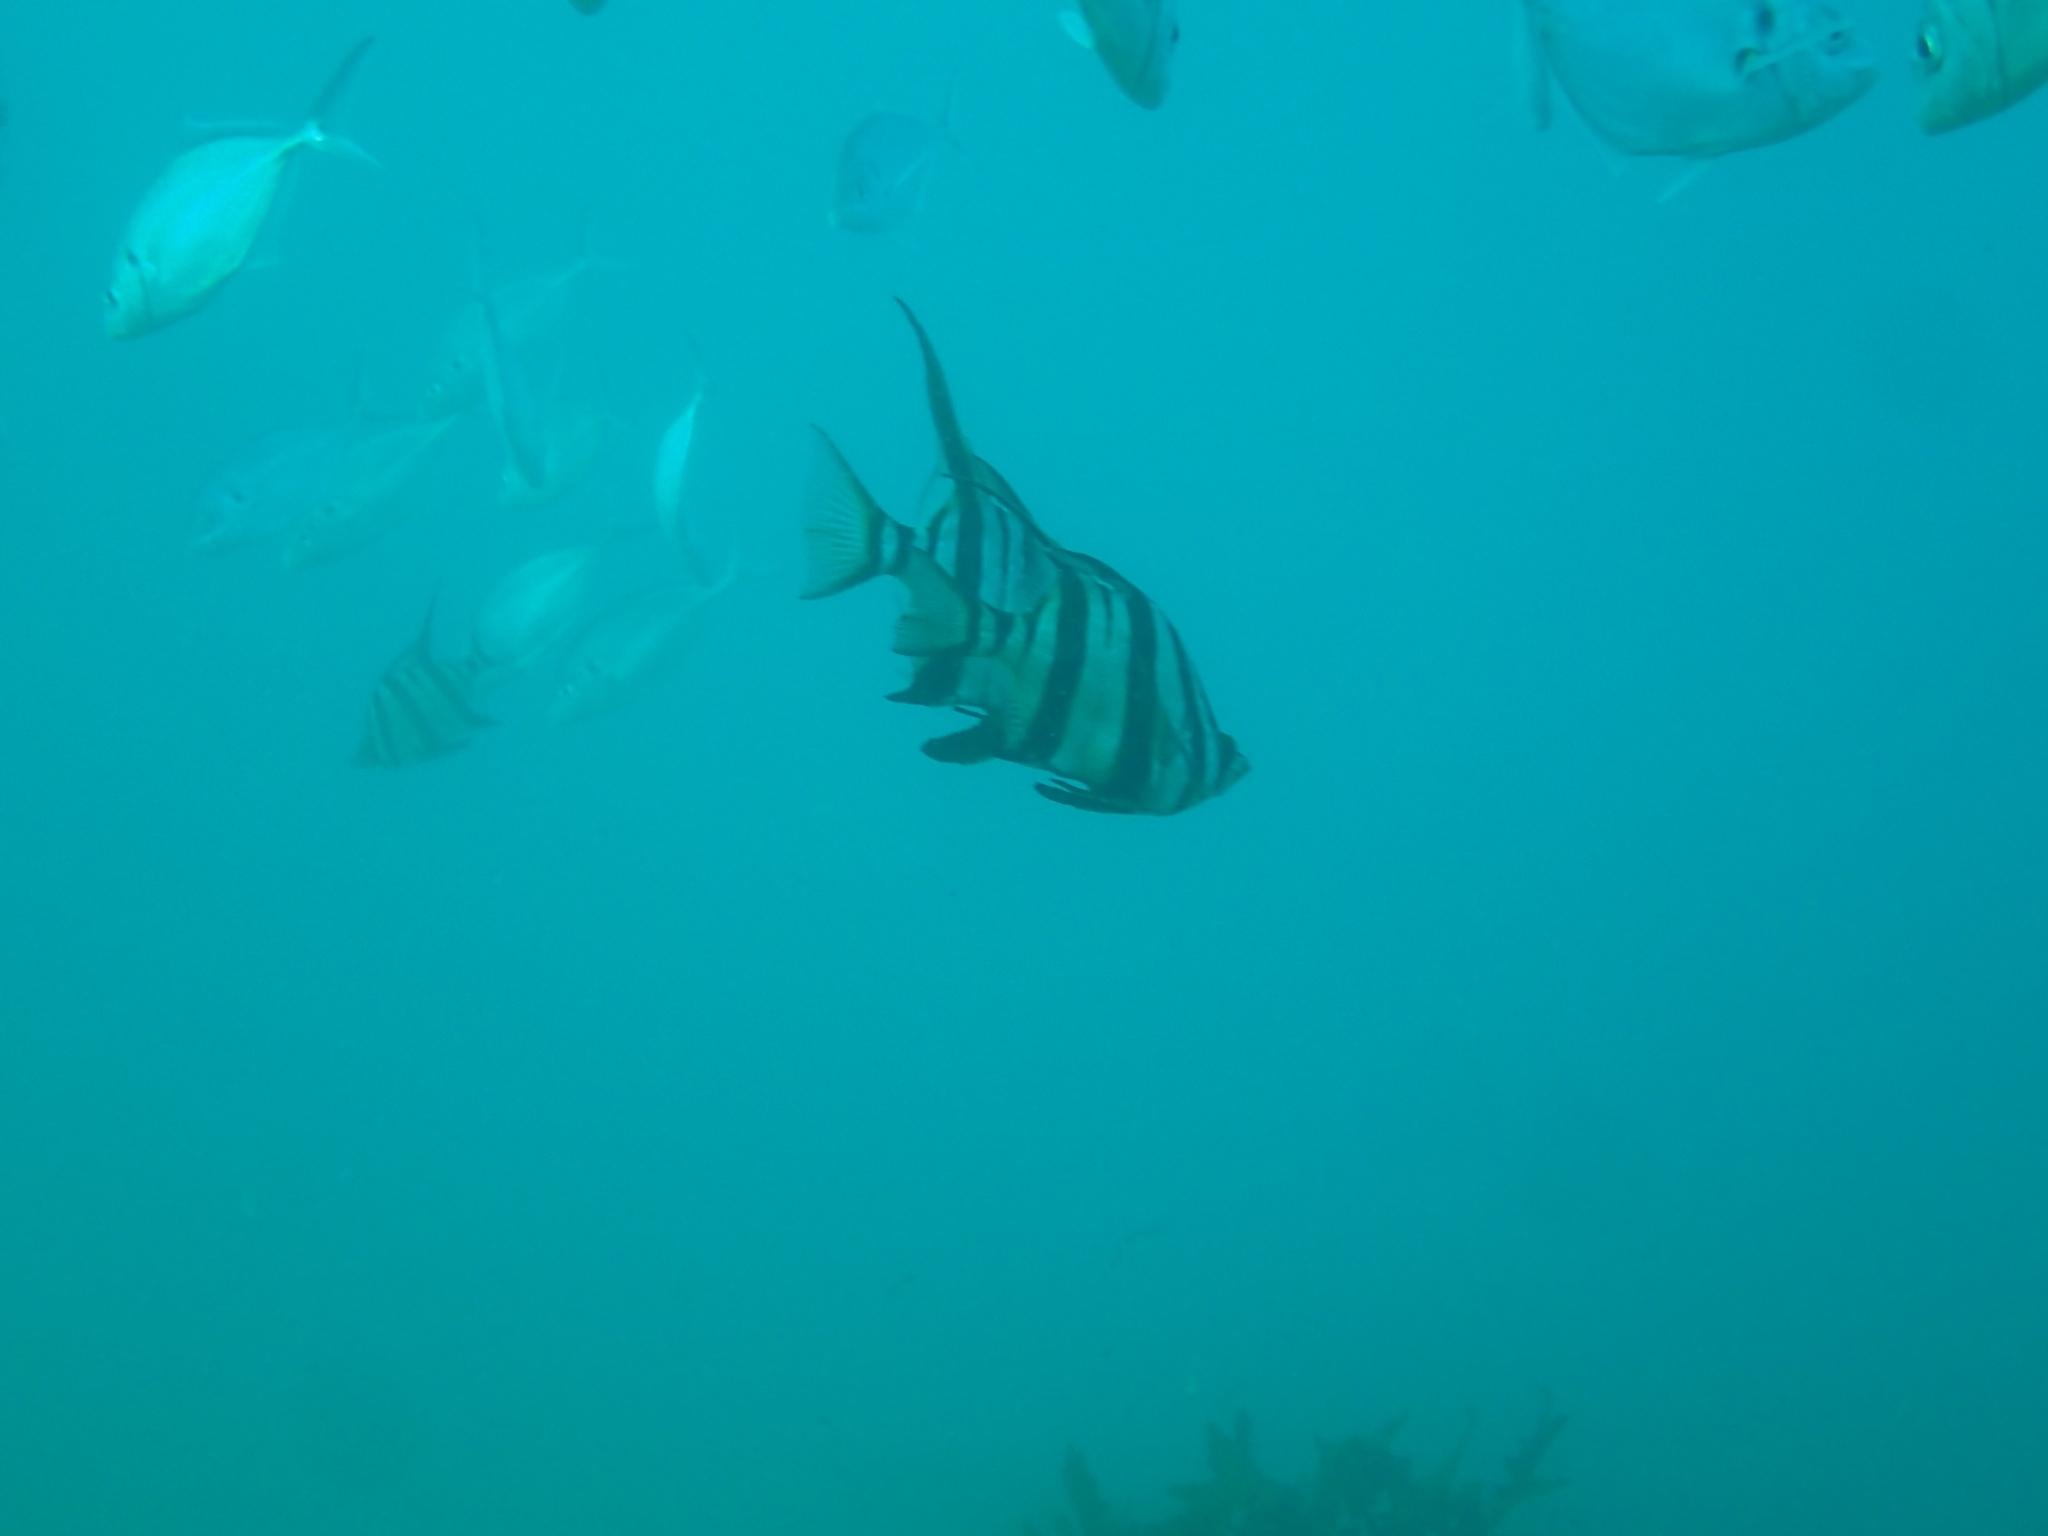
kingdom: Animalia
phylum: Chordata
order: Perciformes
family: Enoplosidae
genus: Enoplosus
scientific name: Enoplosus armatus
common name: Old wife
